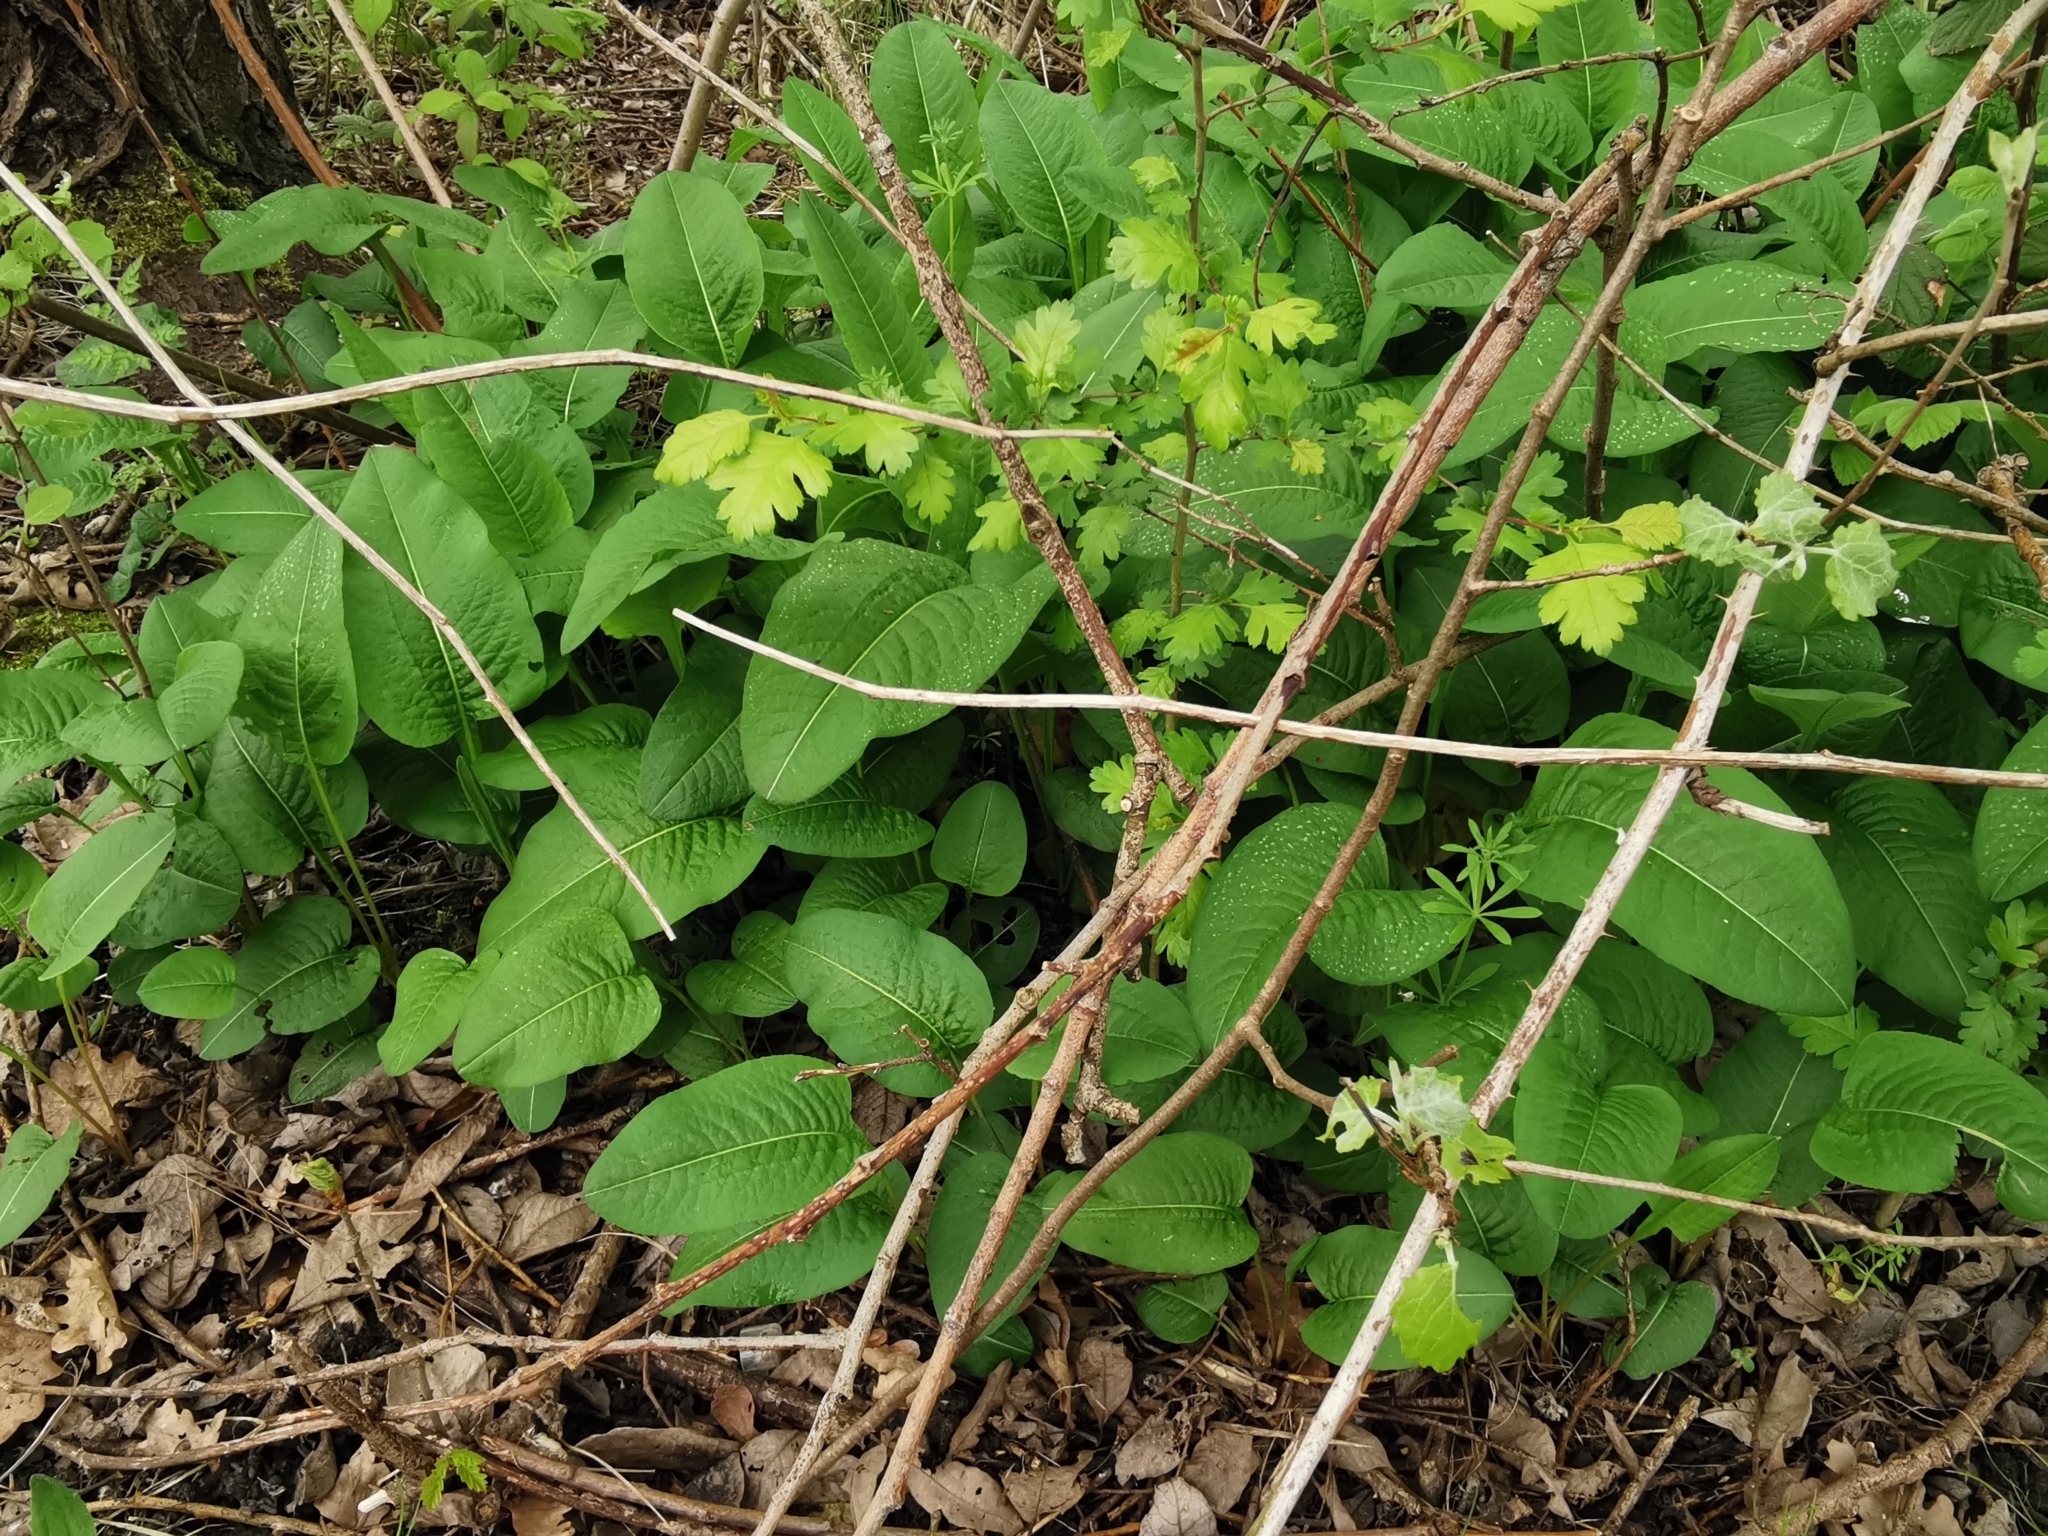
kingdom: Plantae
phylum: Tracheophyta
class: Magnoliopsida
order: Caryophyllales
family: Polygonaceae
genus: Bistorta
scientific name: Bistorta officinalis
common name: Common bistort
